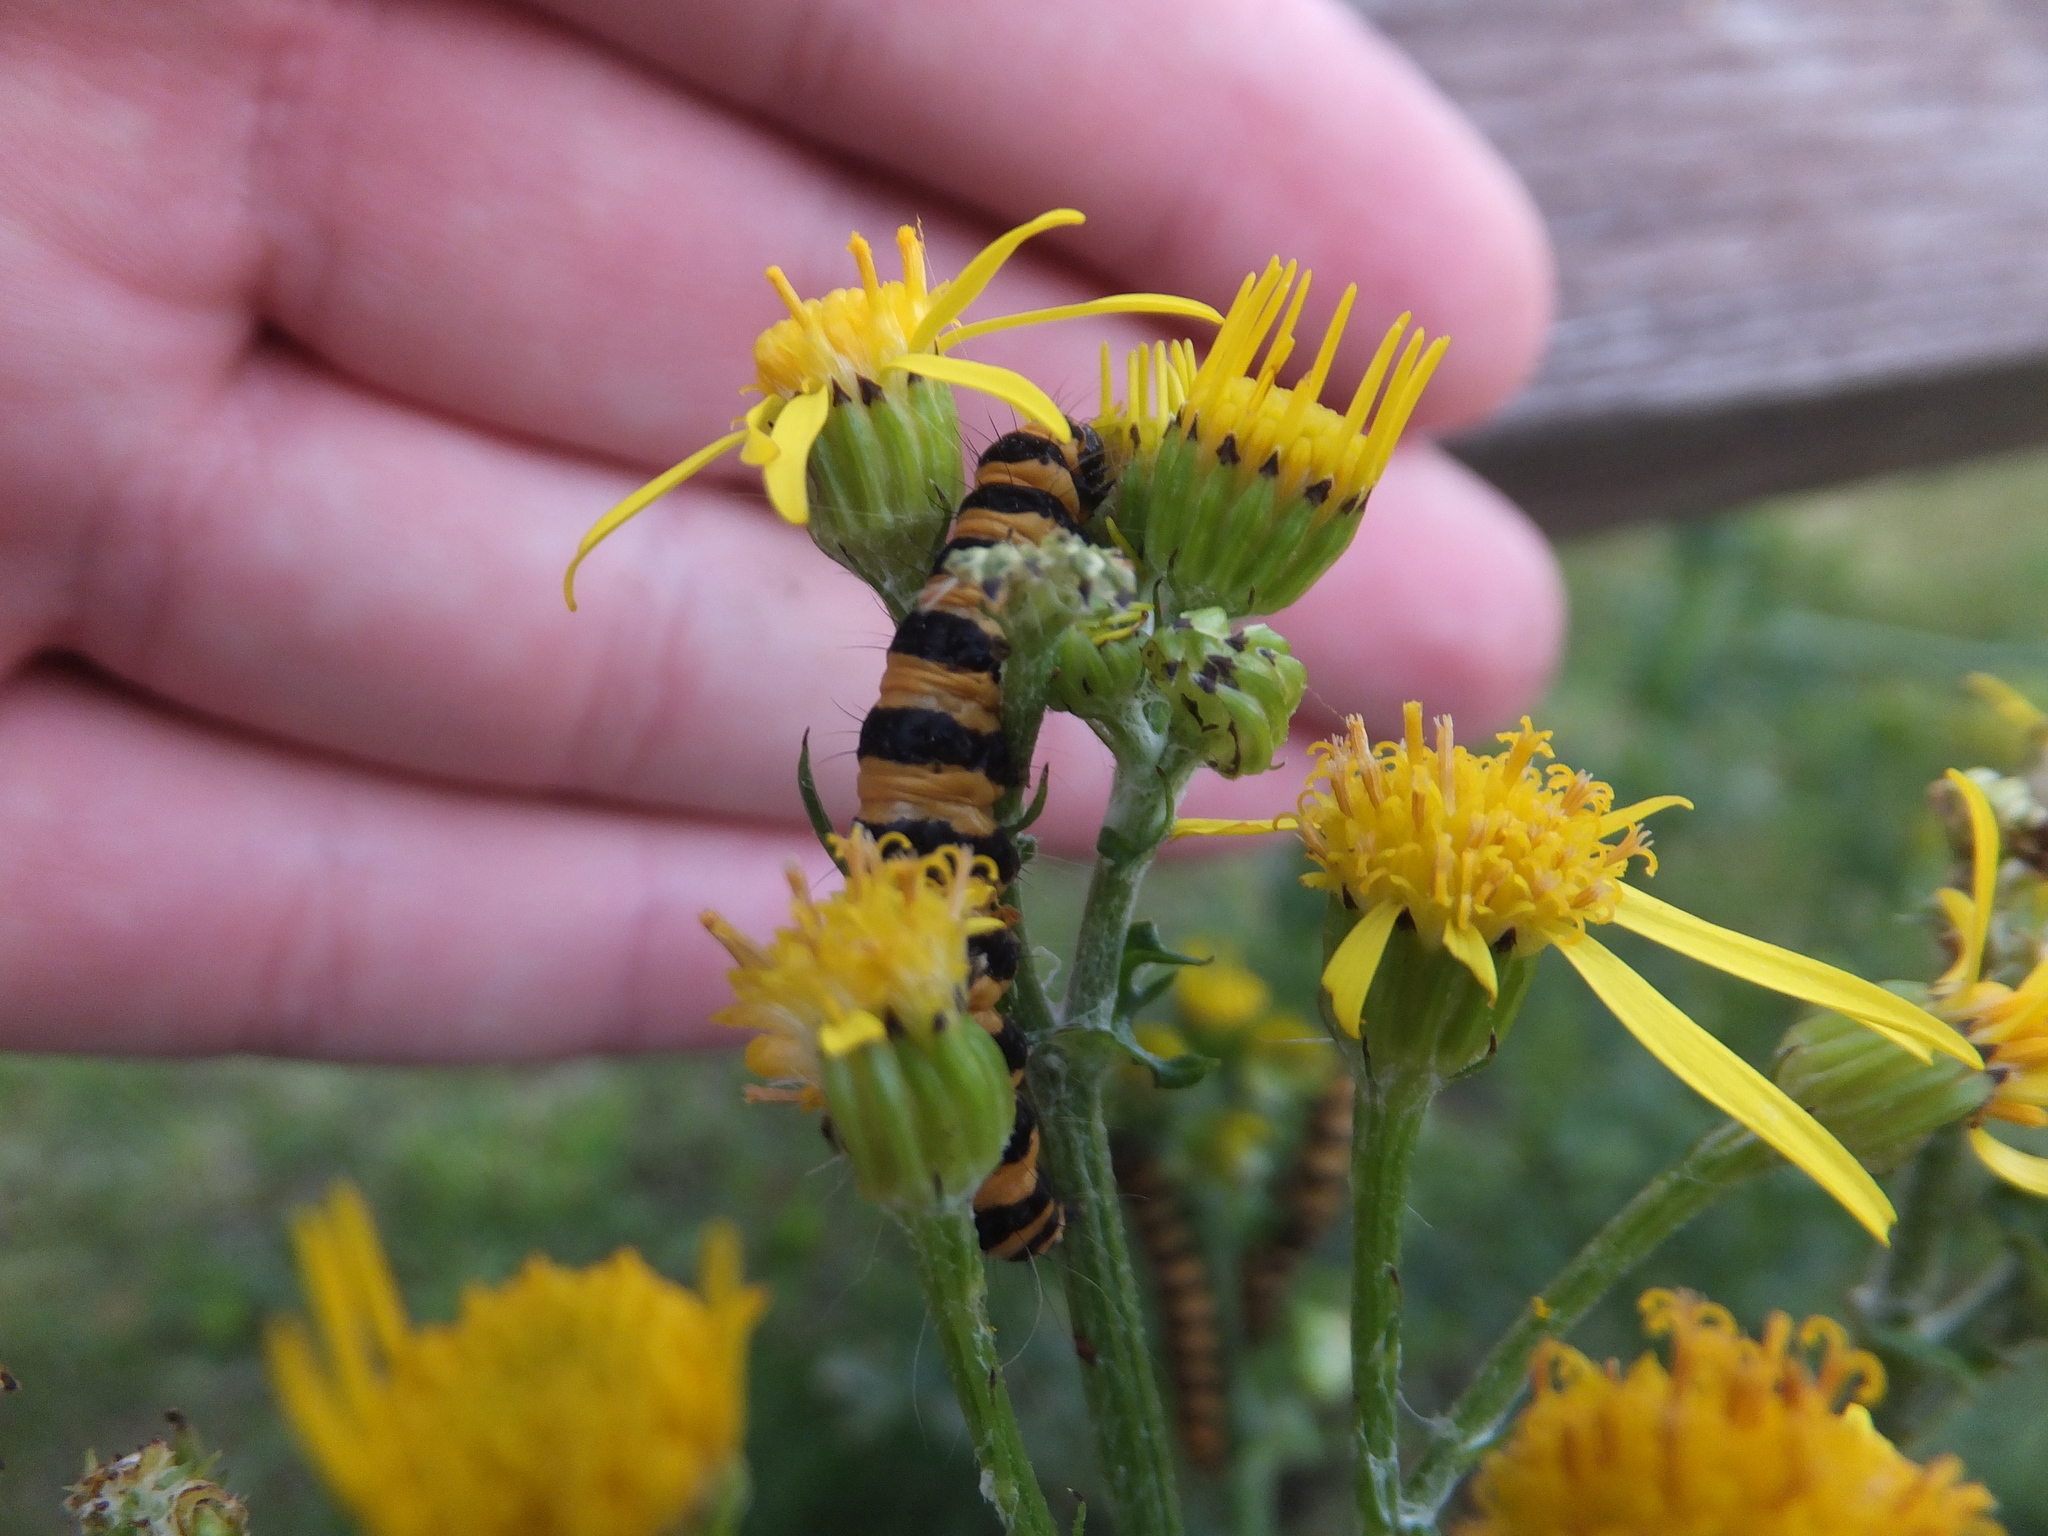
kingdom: Animalia
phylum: Arthropoda
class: Insecta
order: Lepidoptera
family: Erebidae
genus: Tyria
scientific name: Tyria jacobaeae
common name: Cinnabar
